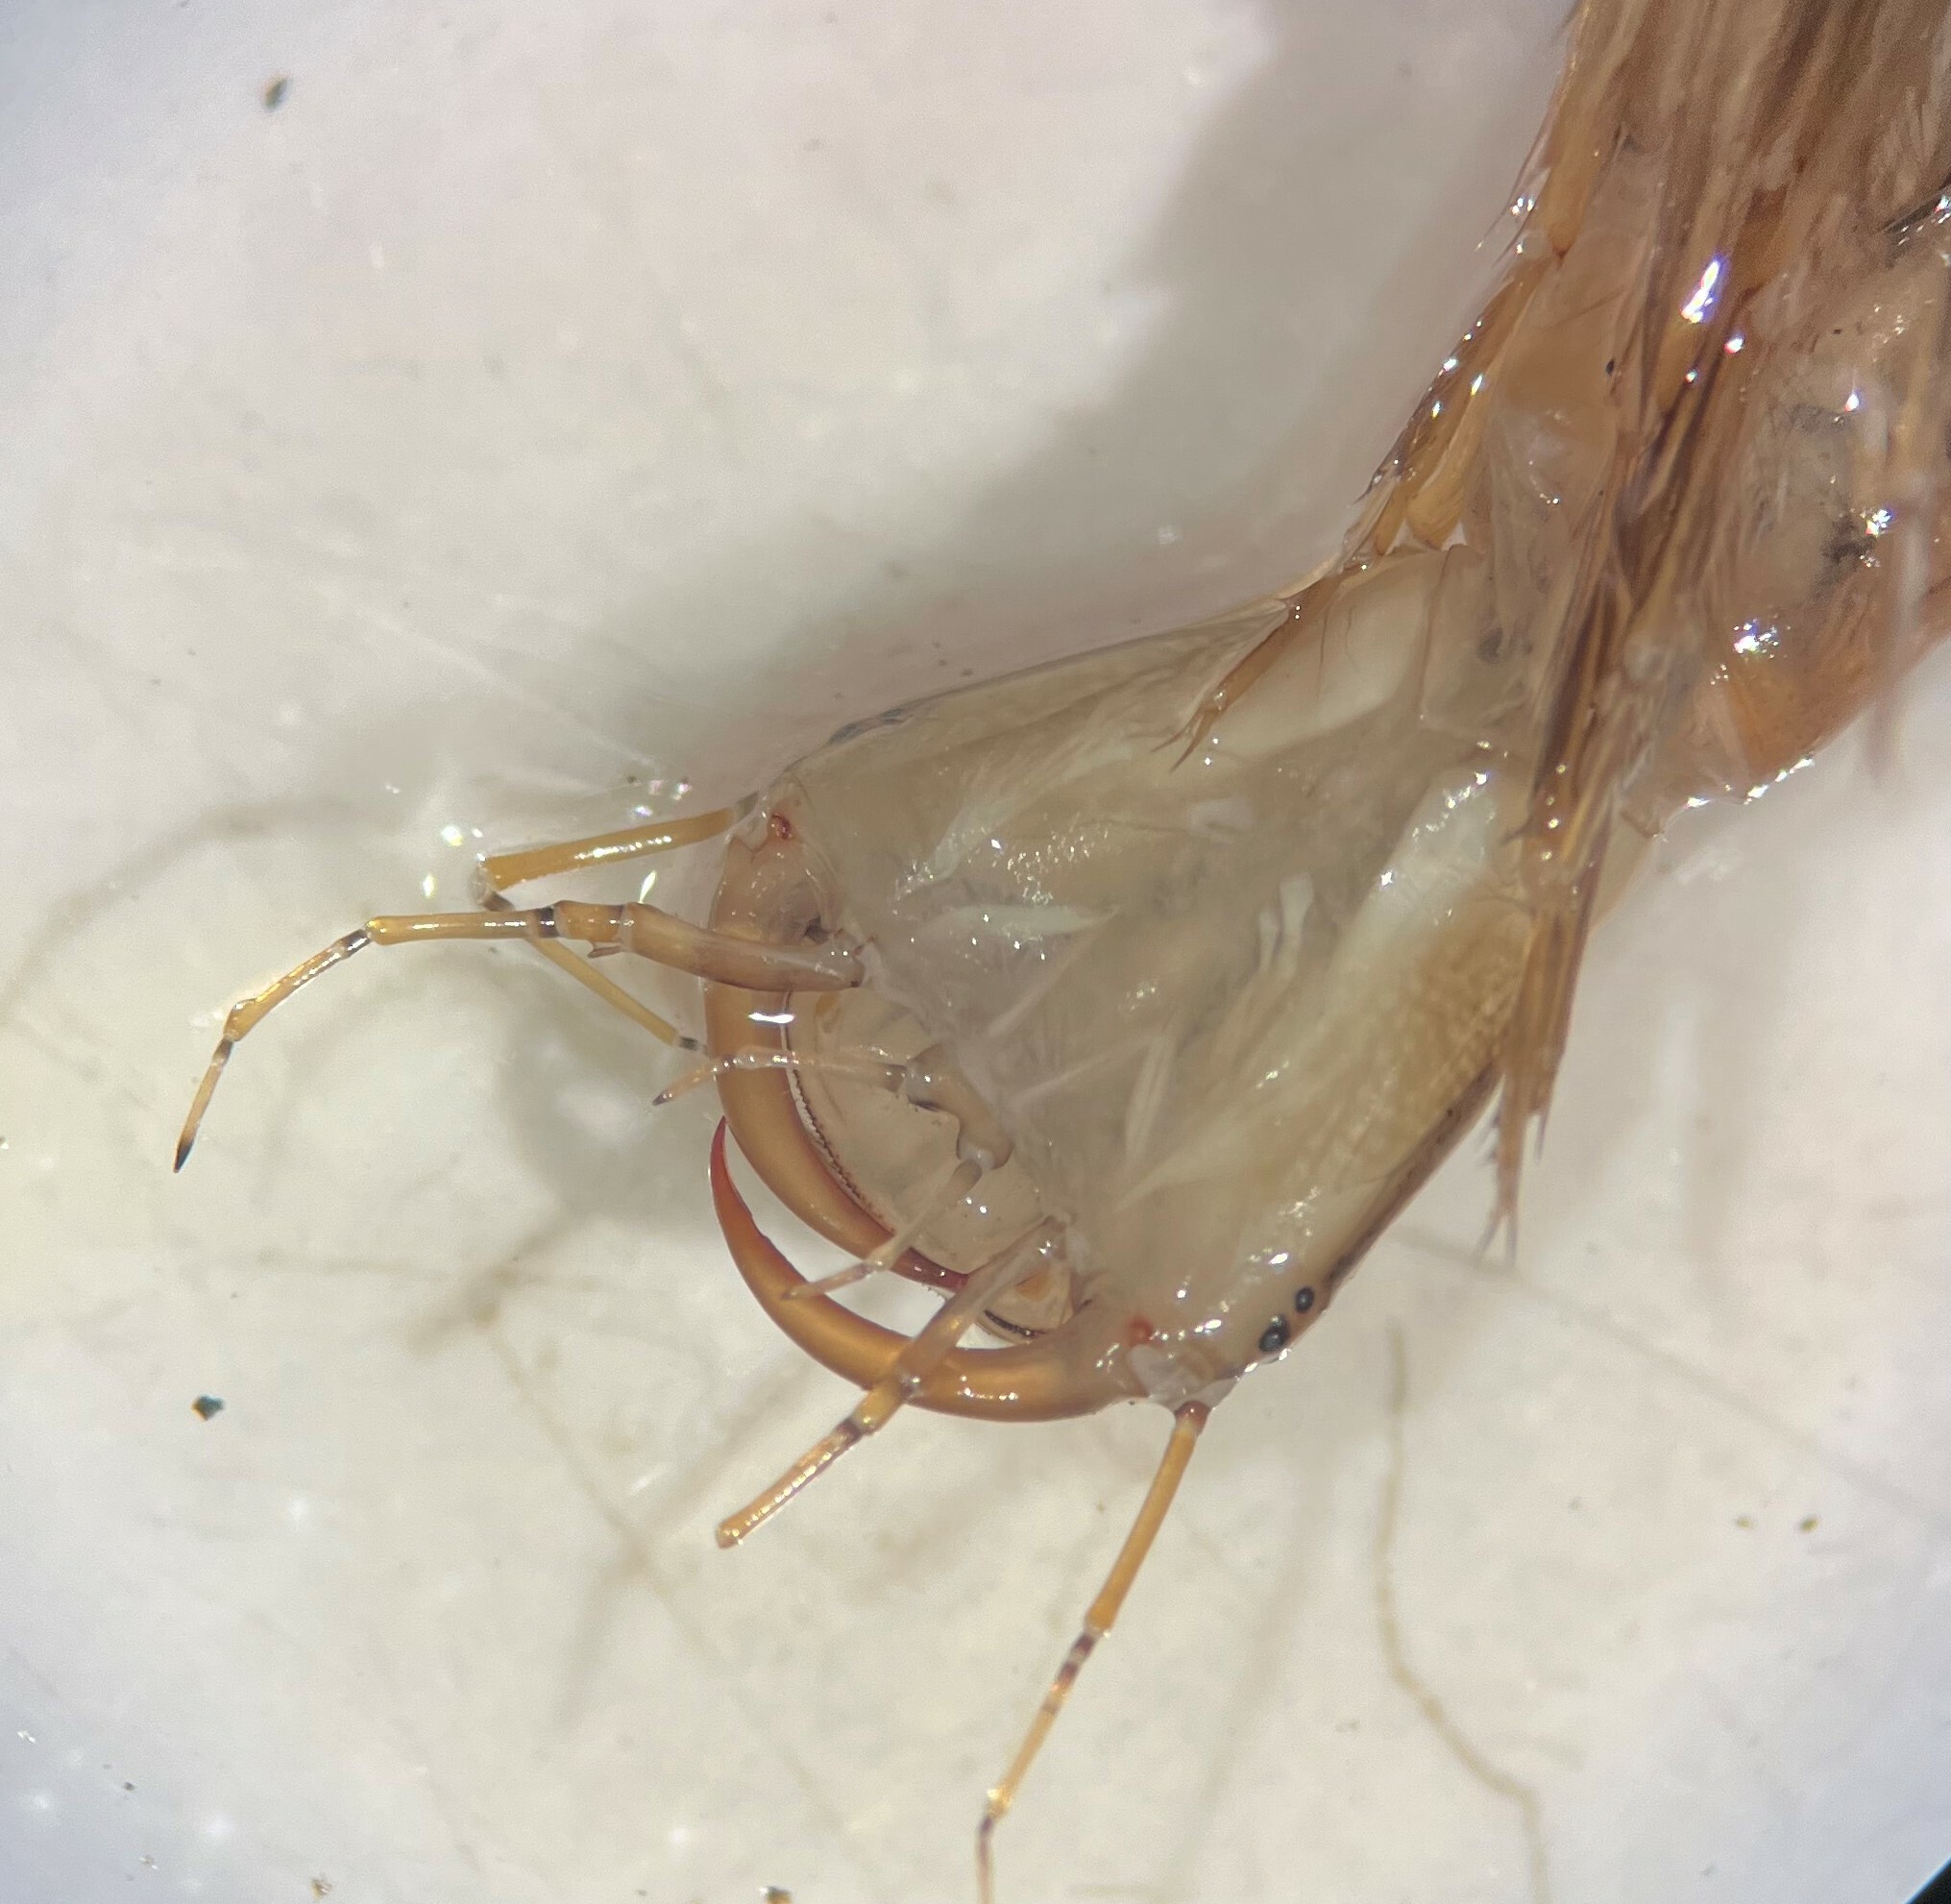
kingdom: Animalia
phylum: Arthropoda
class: Insecta
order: Coleoptera
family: Dytiscidae
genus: Dytiscus
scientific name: Dytiscus
